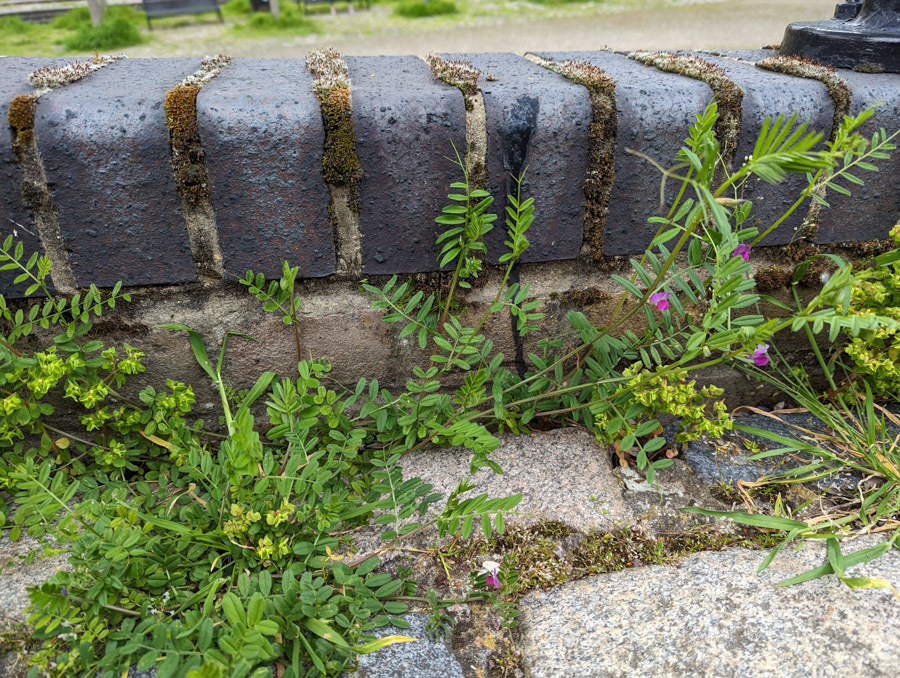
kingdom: Plantae
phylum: Tracheophyta
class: Magnoliopsida
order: Fabales
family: Fabaceae
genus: Vicia
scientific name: Vicia sativa
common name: Garden vetch
